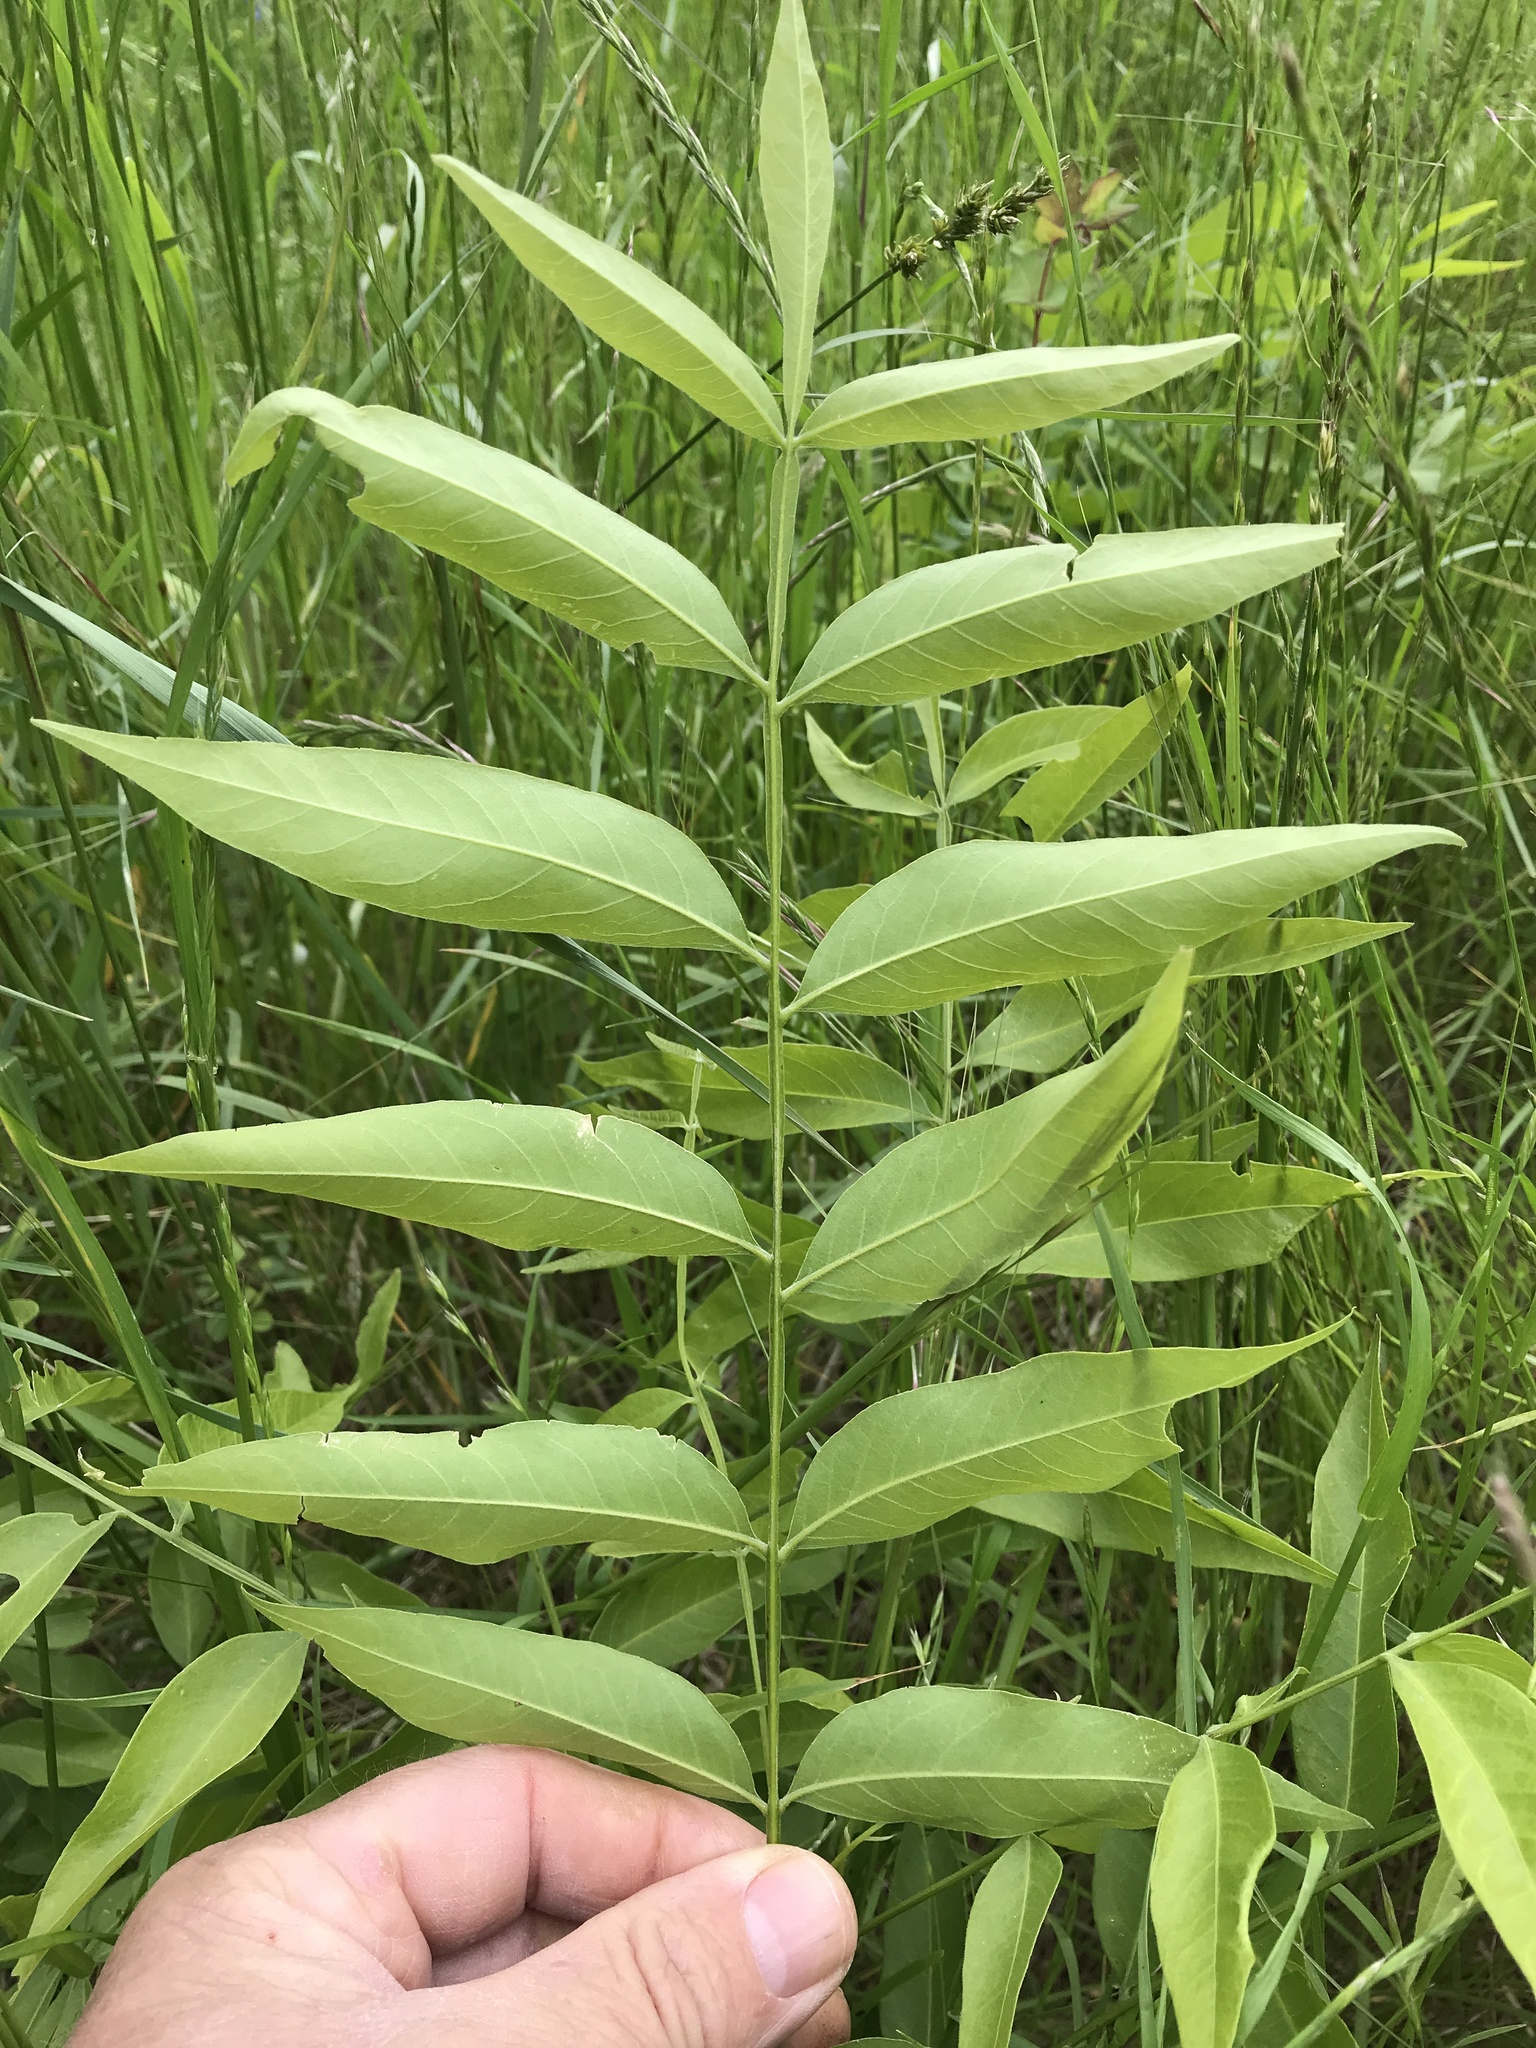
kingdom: Plantae
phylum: Tracheophyta
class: Magnoliopsida
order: Sapindales
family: Sapindaceae
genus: Sapindus
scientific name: Sapindus drummondii
